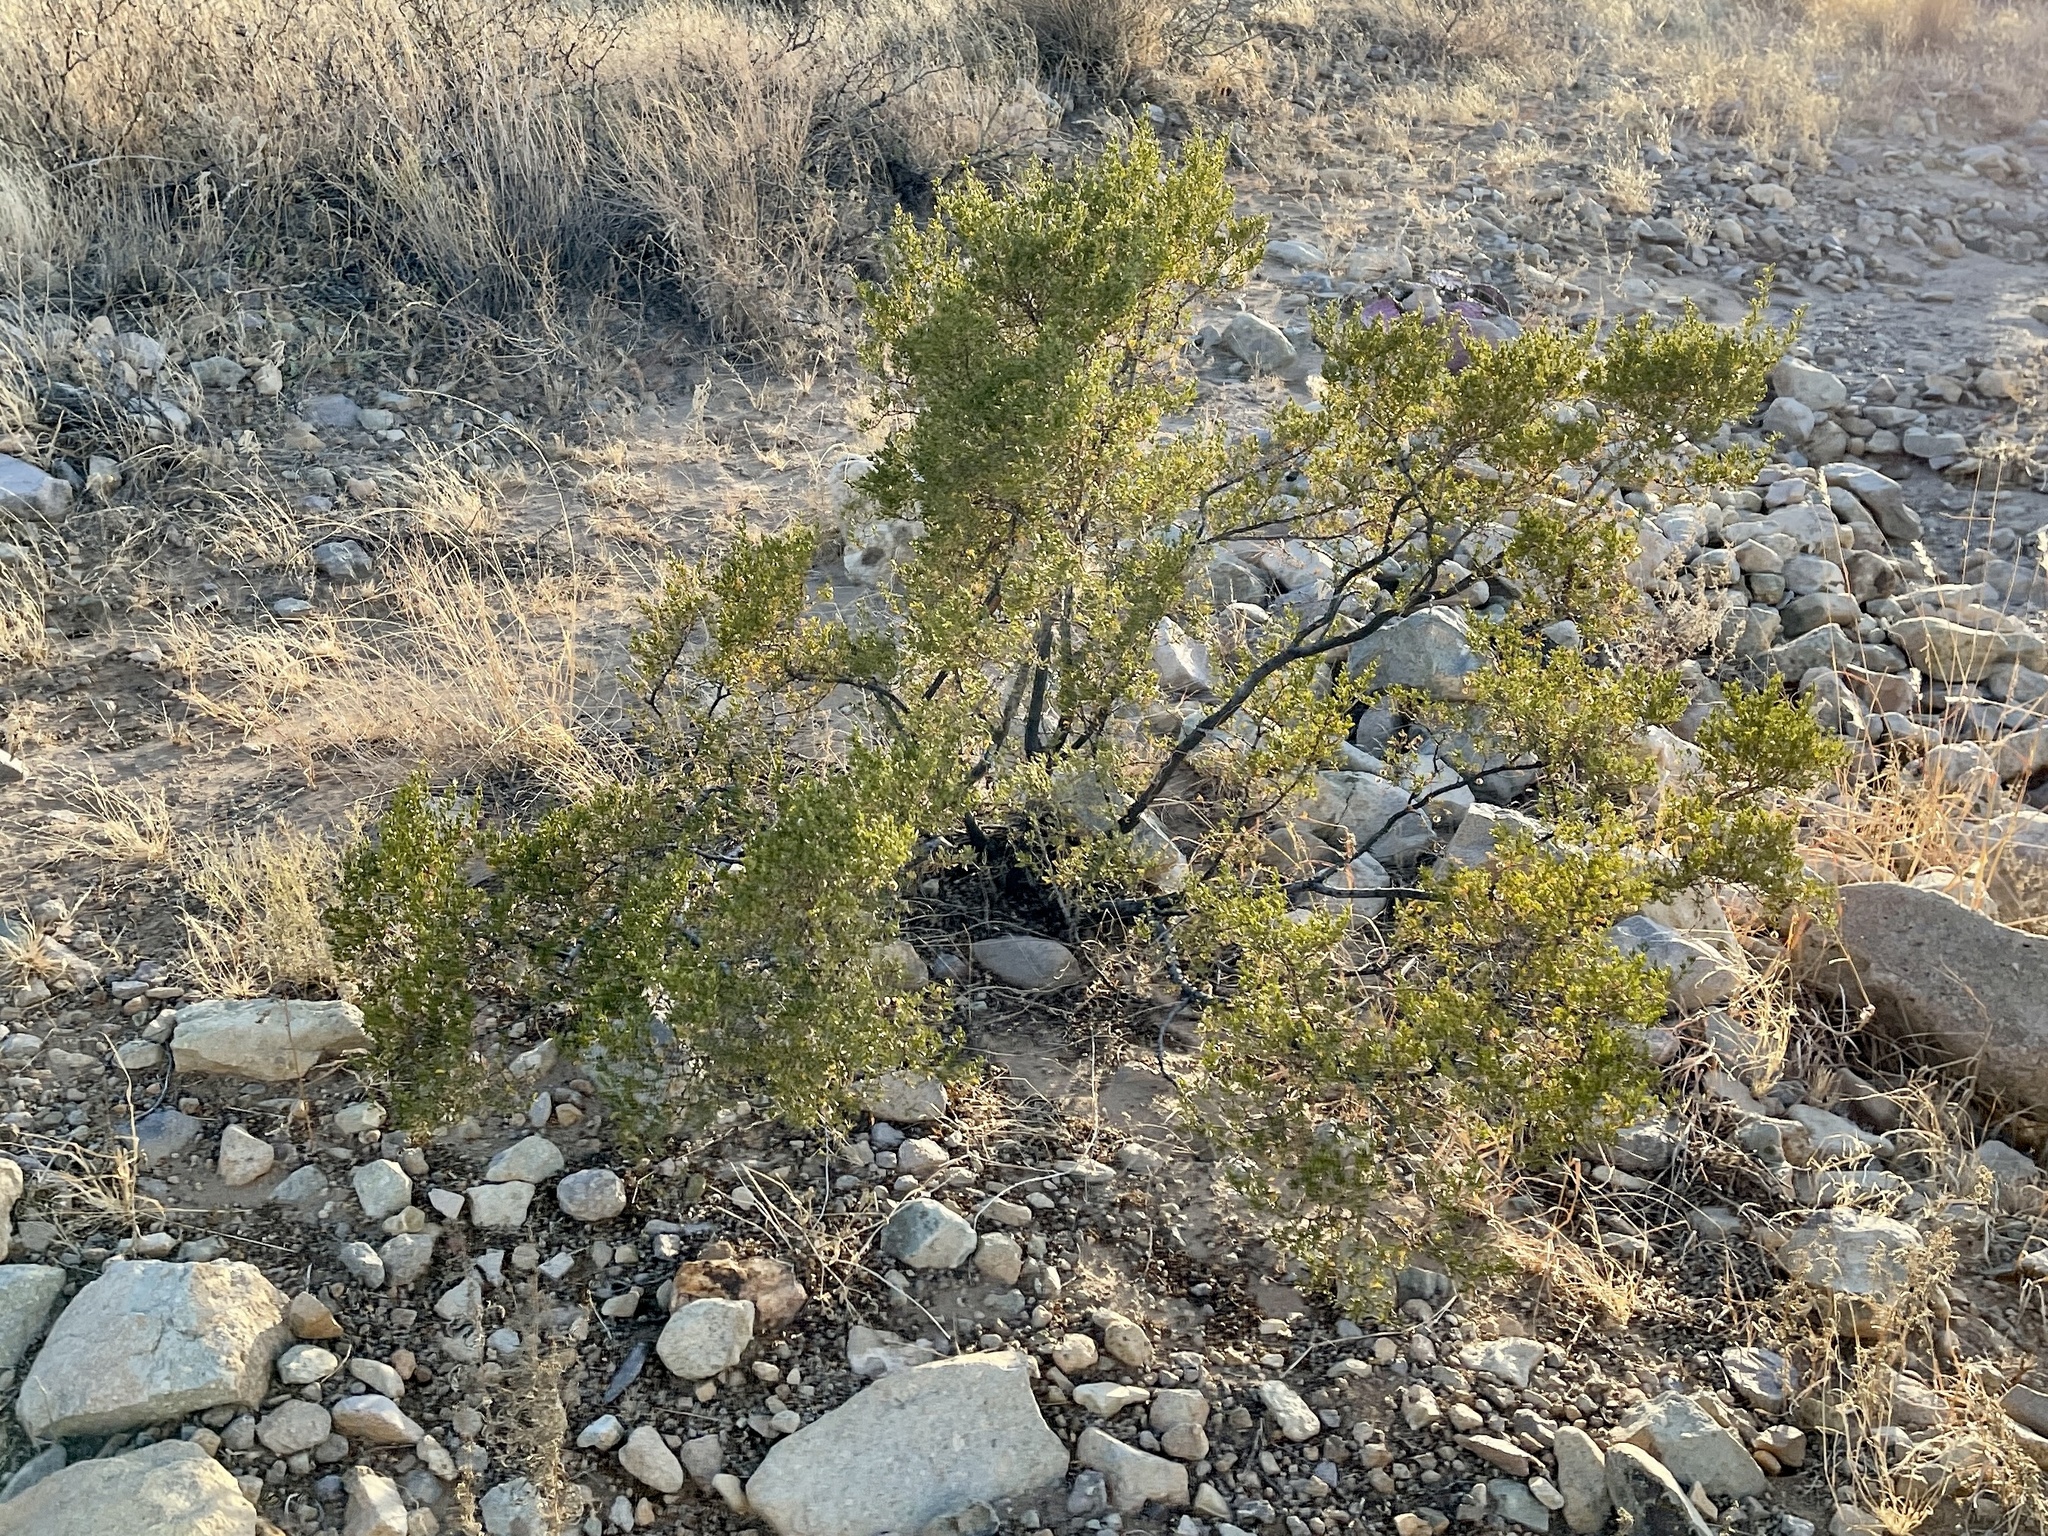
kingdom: Plantae
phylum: Tracheophyta
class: Magnoliopsida
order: Zygophyllales
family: Zygophyllaceae
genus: Larrea
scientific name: Larrea tridentata
